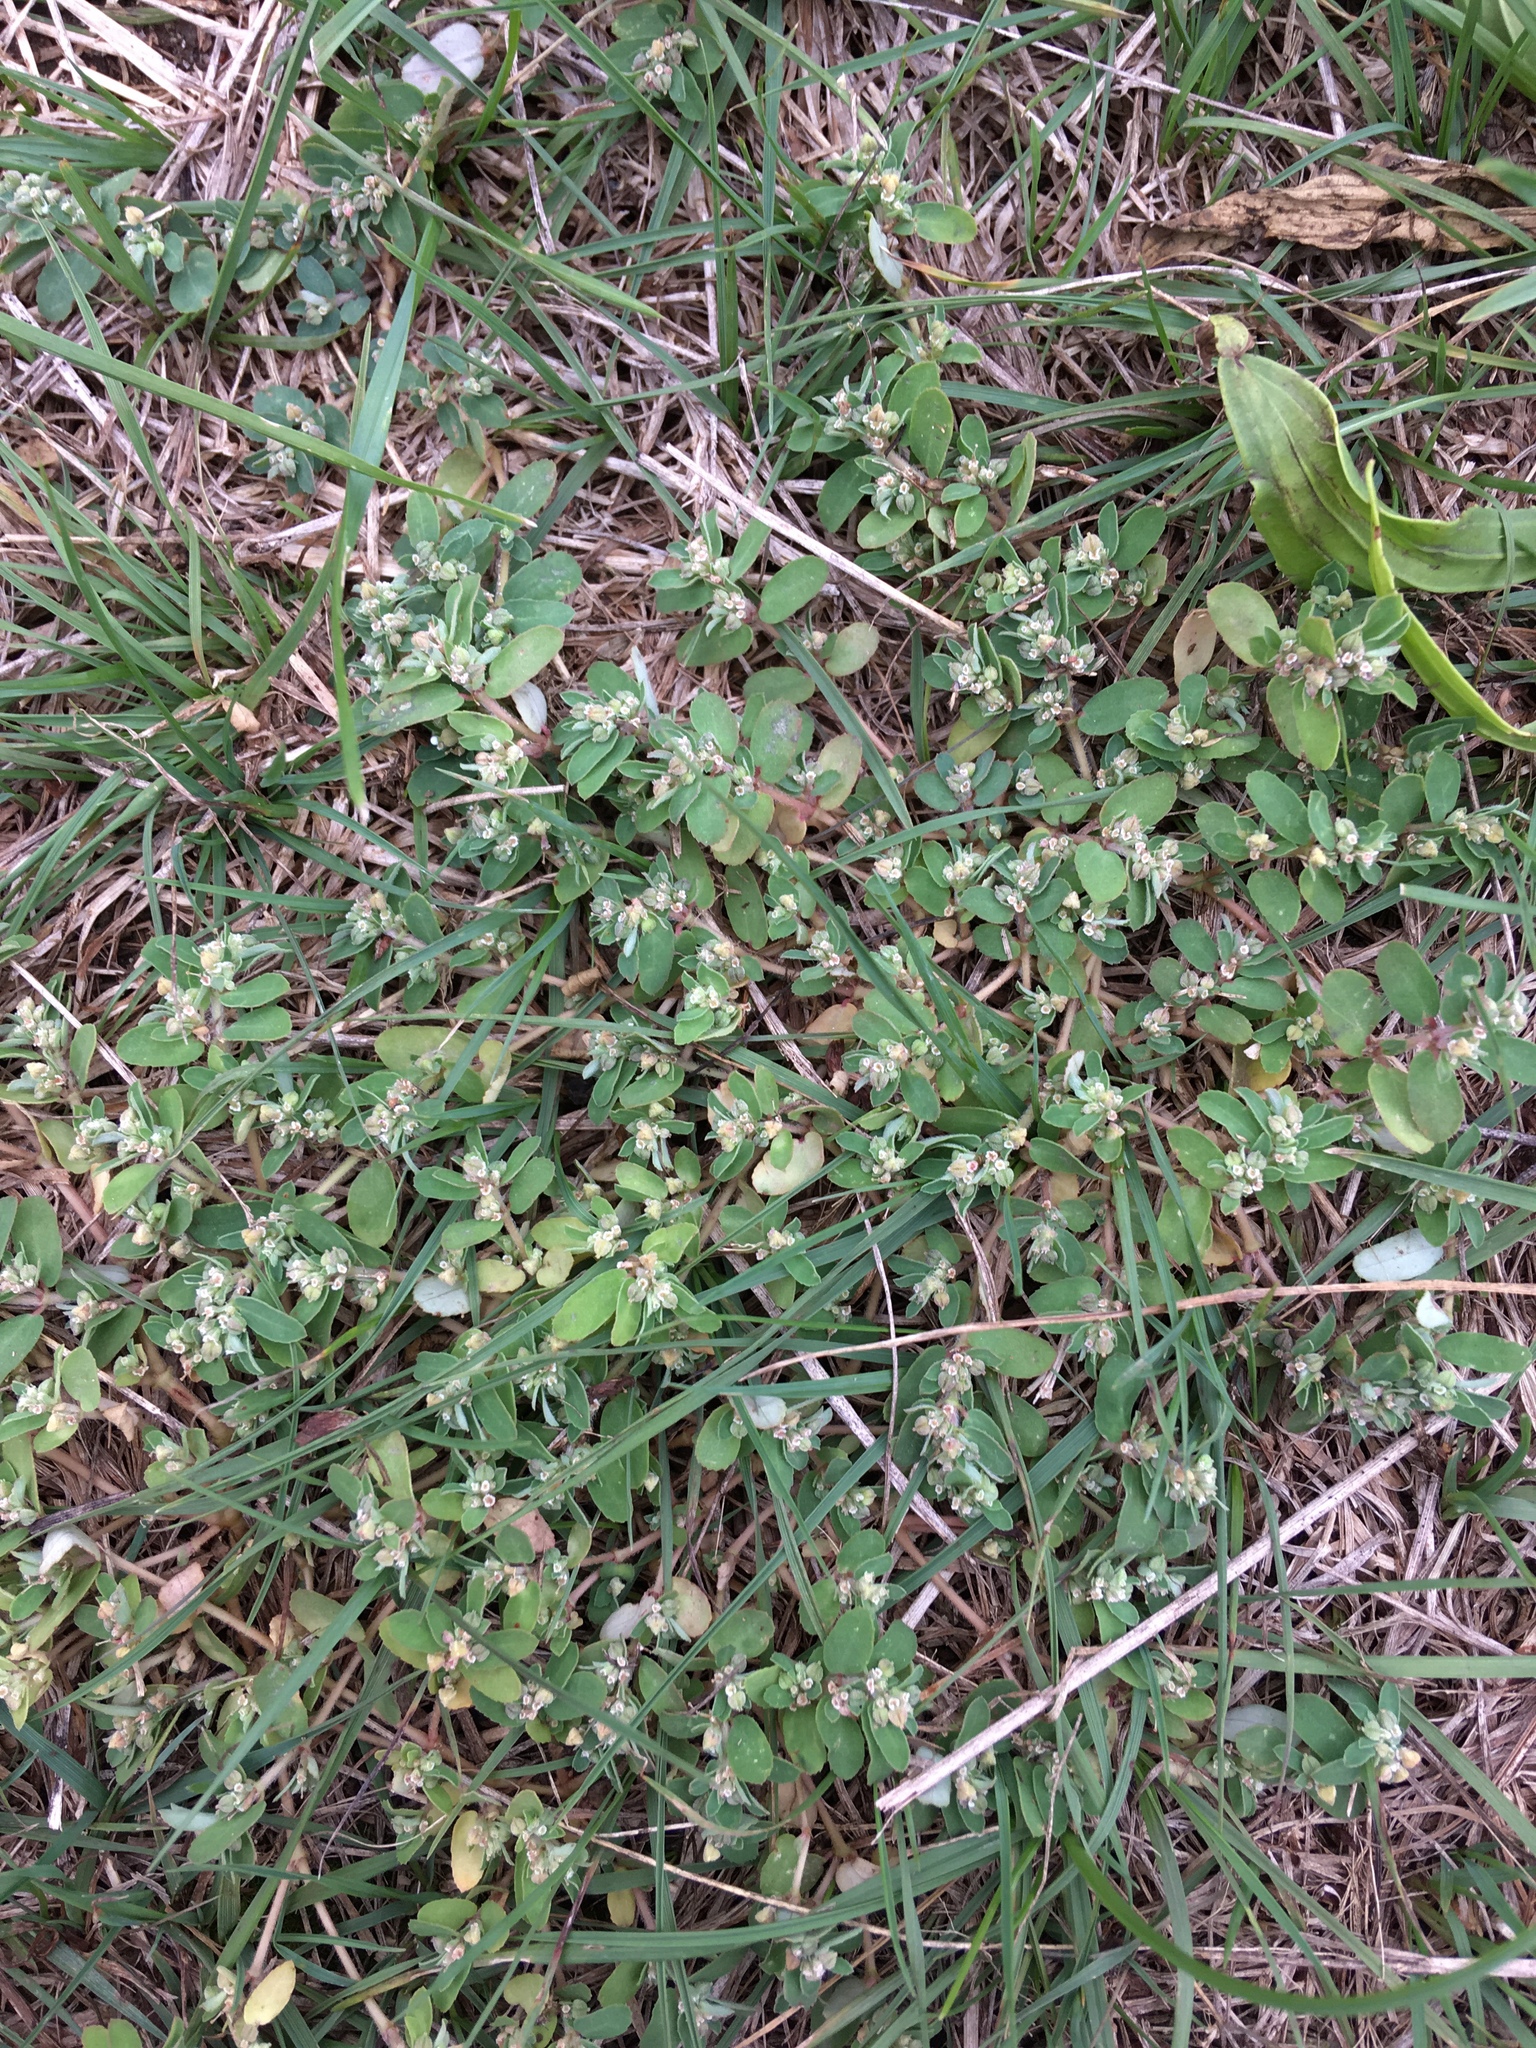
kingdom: Plantae
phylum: Tracheophyta
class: Magnoliopsida
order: Malpighiales
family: Euphorbiaceae
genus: Euphorbia
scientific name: Euphorbia maculata
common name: Spotted spurge
